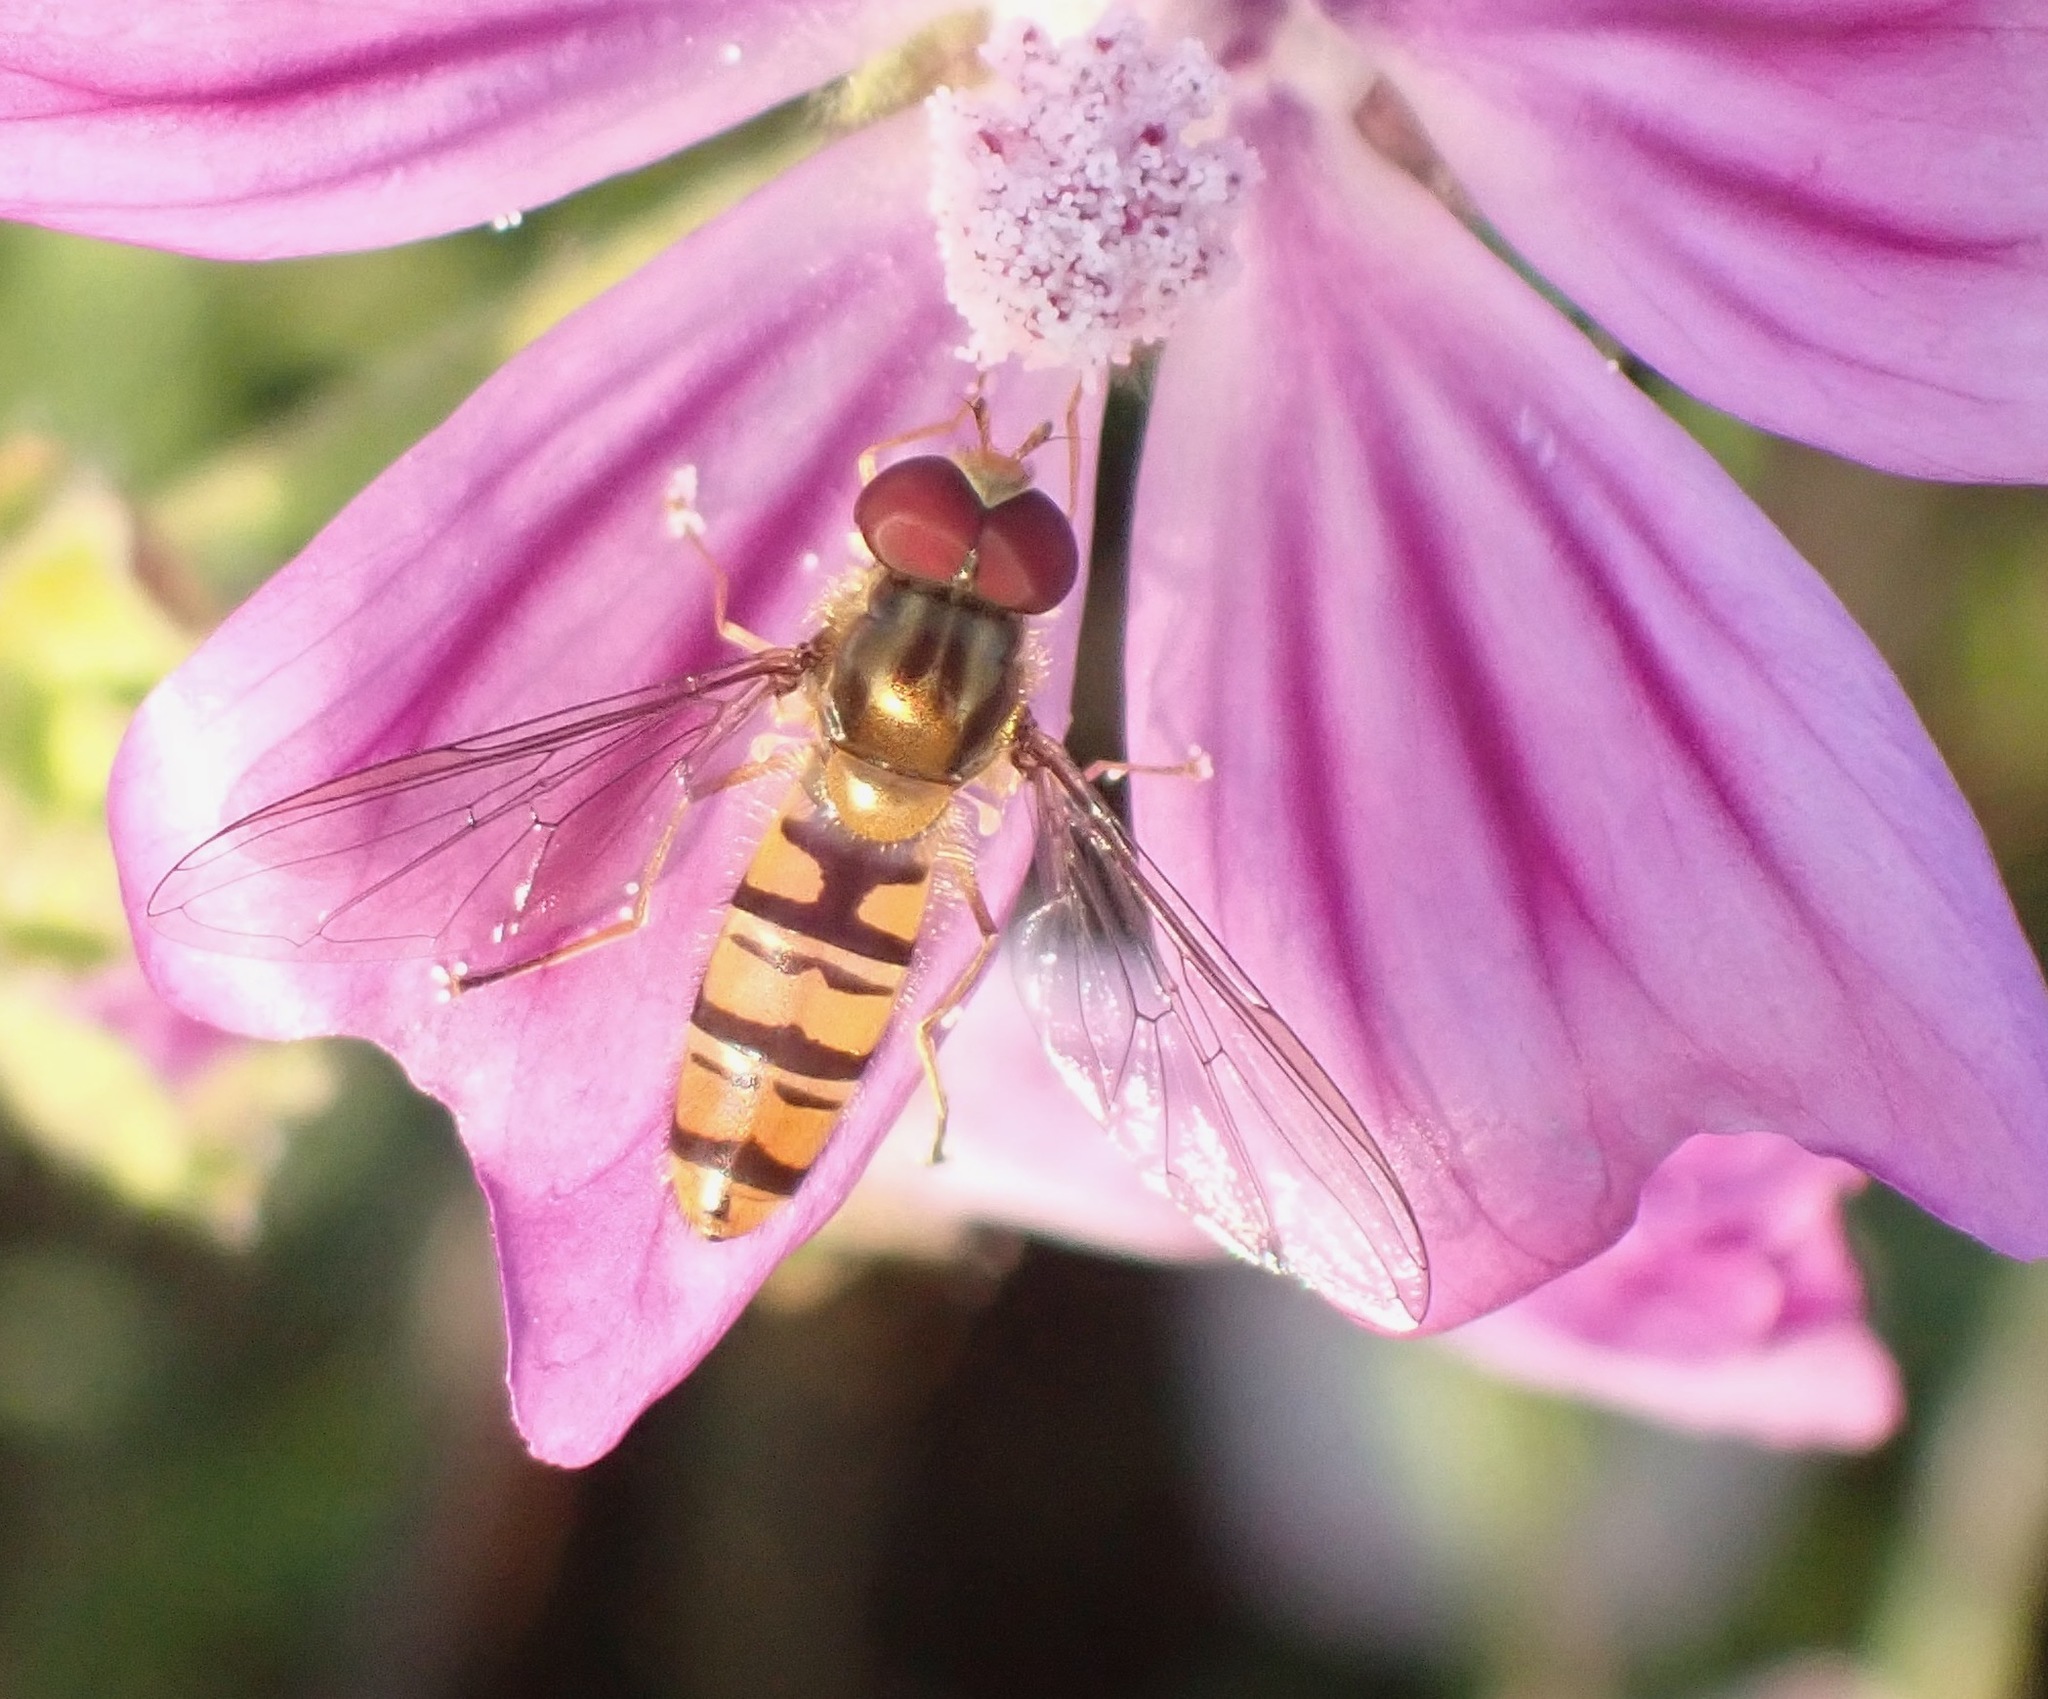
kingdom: Animalia
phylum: Arthropoda
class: Insecta
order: Diptera
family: Syrphidae
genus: Episyrphus
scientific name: Episyrphus balteatus
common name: Marmalade hoverfly
